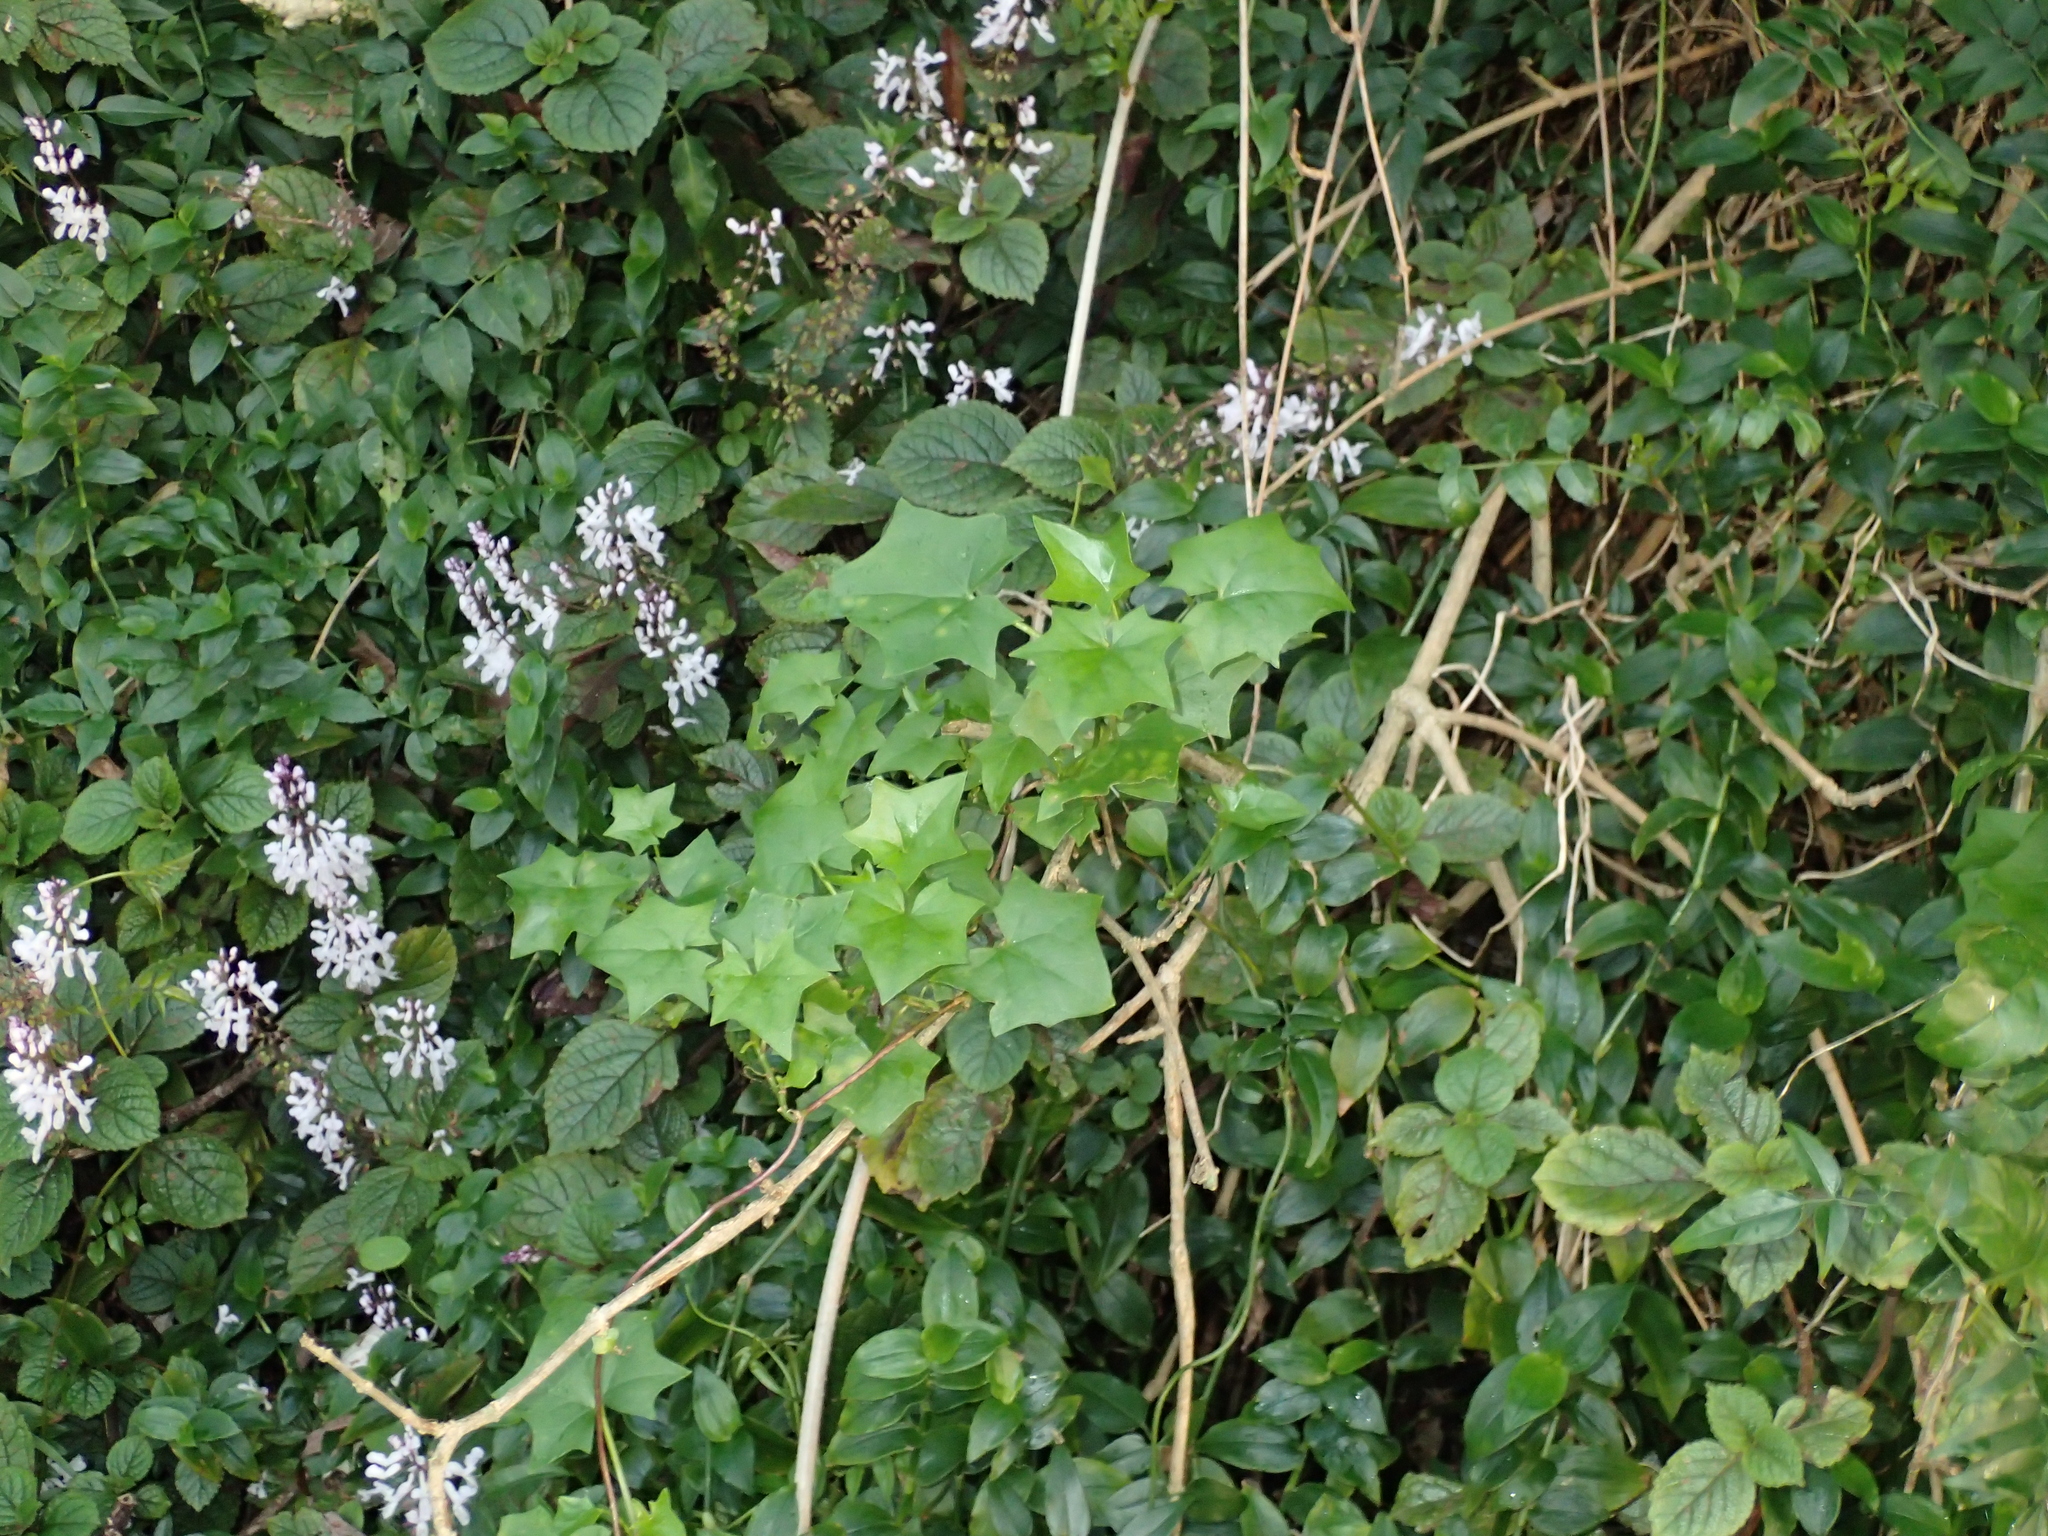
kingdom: Plantae
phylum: Tracheophyta
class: Magnoliopsida
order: Asterales
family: Asteraceae
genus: Delairea
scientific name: Delairea odorata
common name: Cape-ivy
